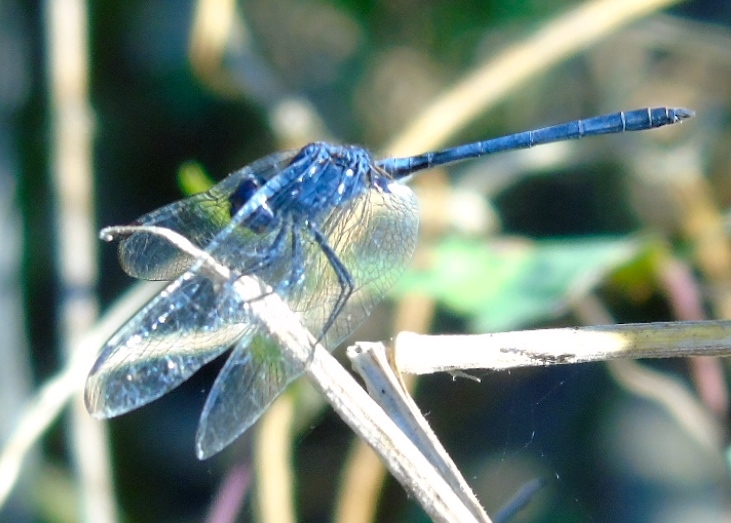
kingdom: Animalia
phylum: Arthropoda
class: Insecta
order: Odonata
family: Libellulidae
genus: Dythemis
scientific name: Dythemis nigrescens
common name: Black setwing
